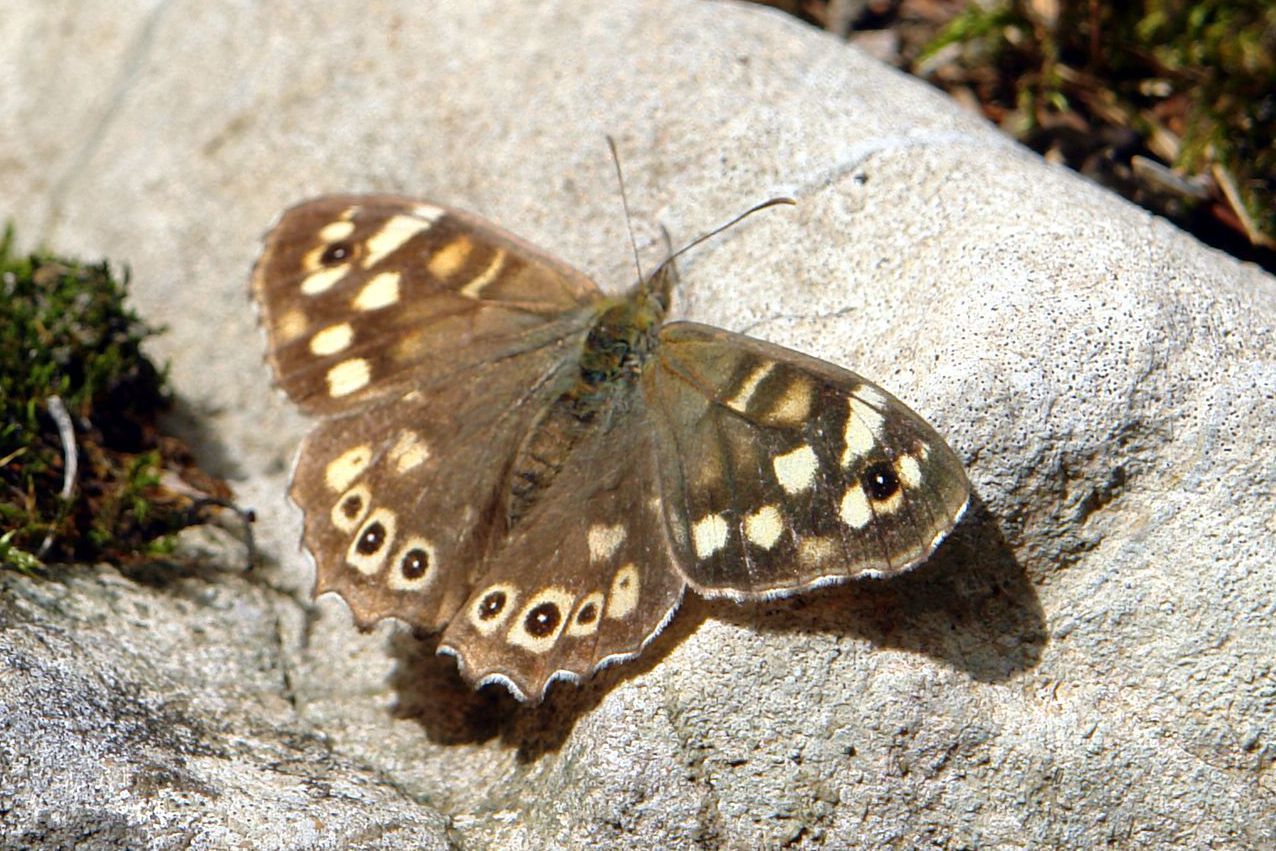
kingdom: Animalia
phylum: Arthropoda
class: Insecta
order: Lepidoptera
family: Nymphalidae
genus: Pararge
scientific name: Pararge aegeria
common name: Speckled wood
